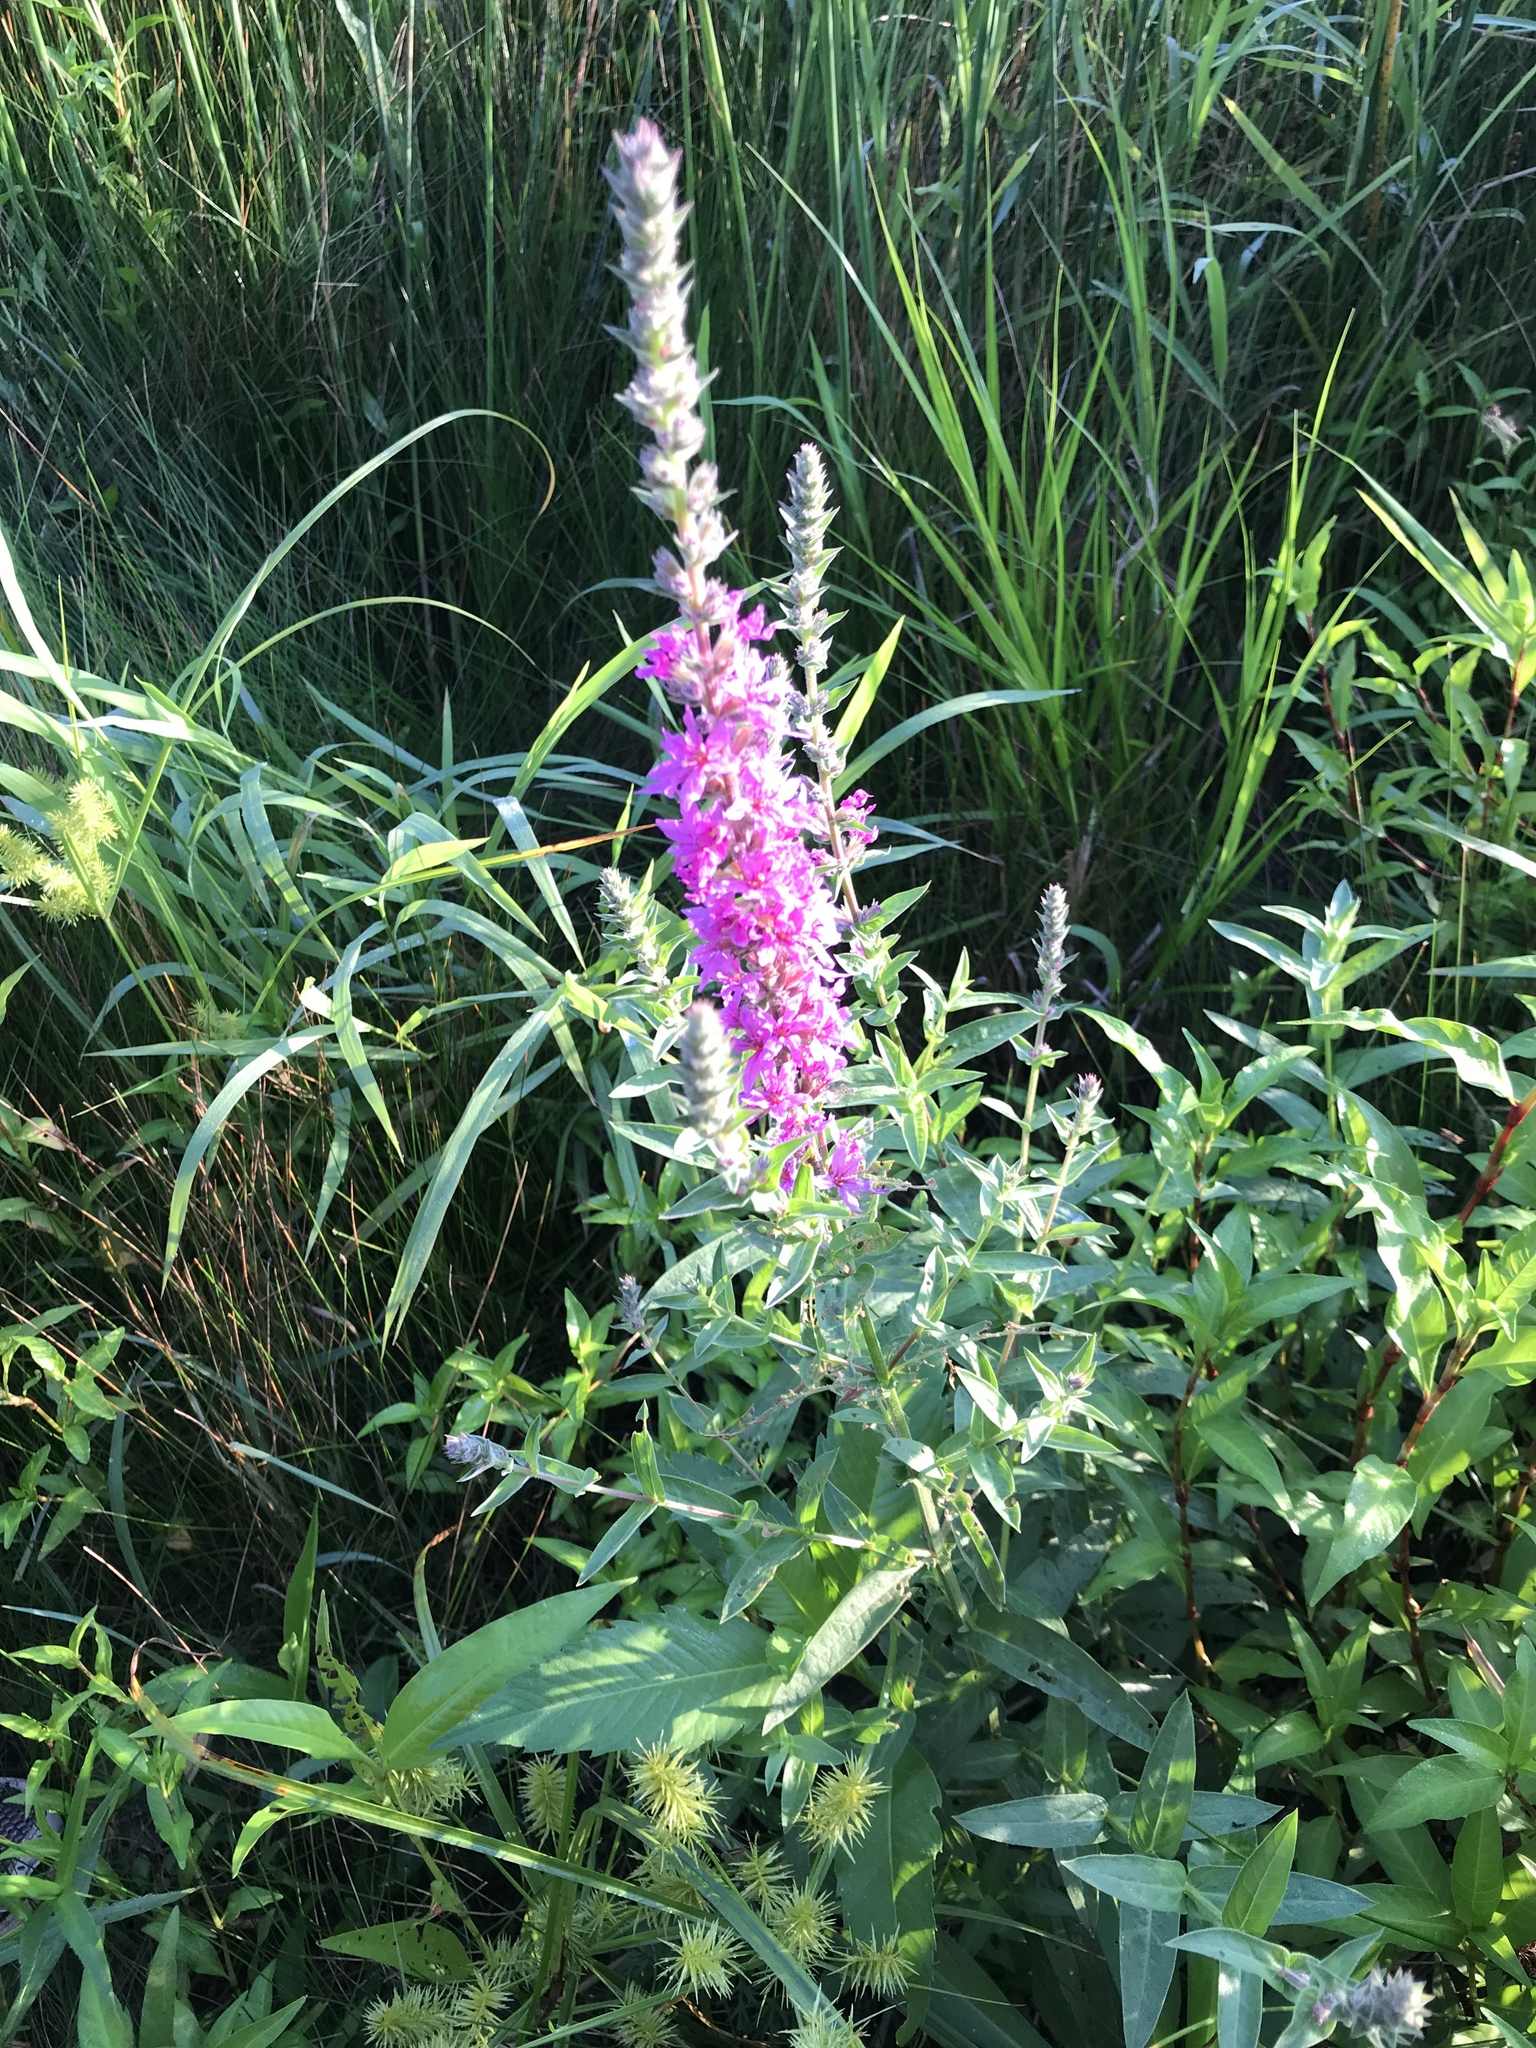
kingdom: Plantae
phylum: Tracheophyta
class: Magnoliopsida
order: Myrtales
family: Lythraceae
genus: Lythrum
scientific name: Lythrum salicaria
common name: Purple loosestrife
